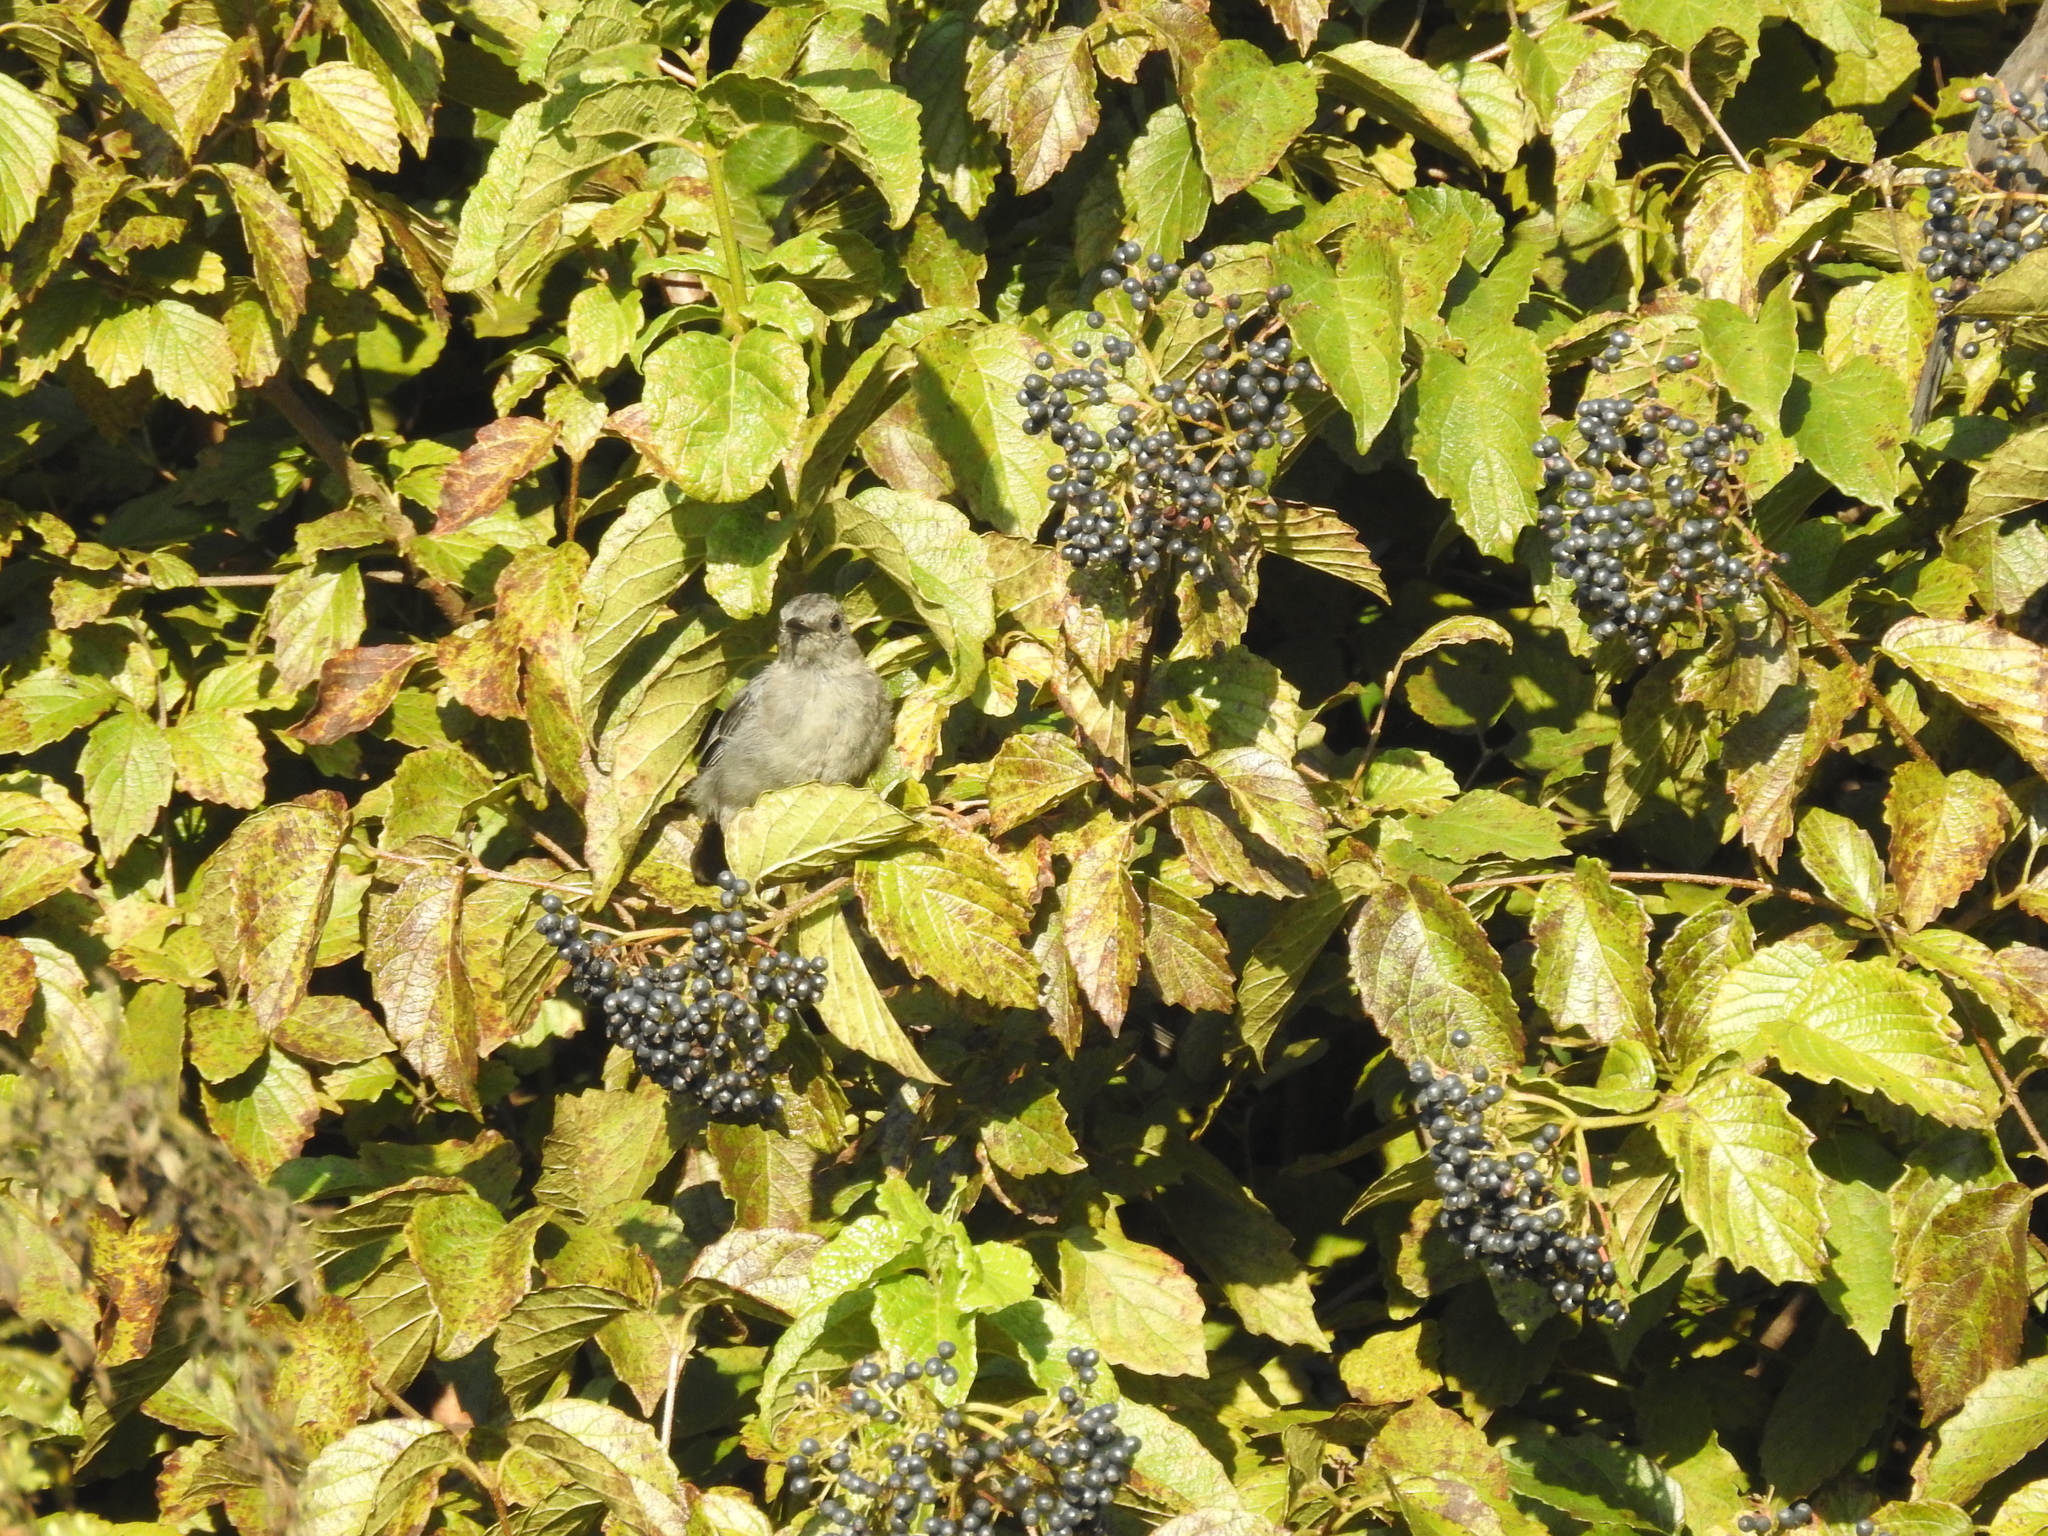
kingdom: Animalia
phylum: Chordata
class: Aves
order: Passeriformes
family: Mimidae
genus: Dumetella
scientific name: Dumetella carolinensis
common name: Gray catbird
